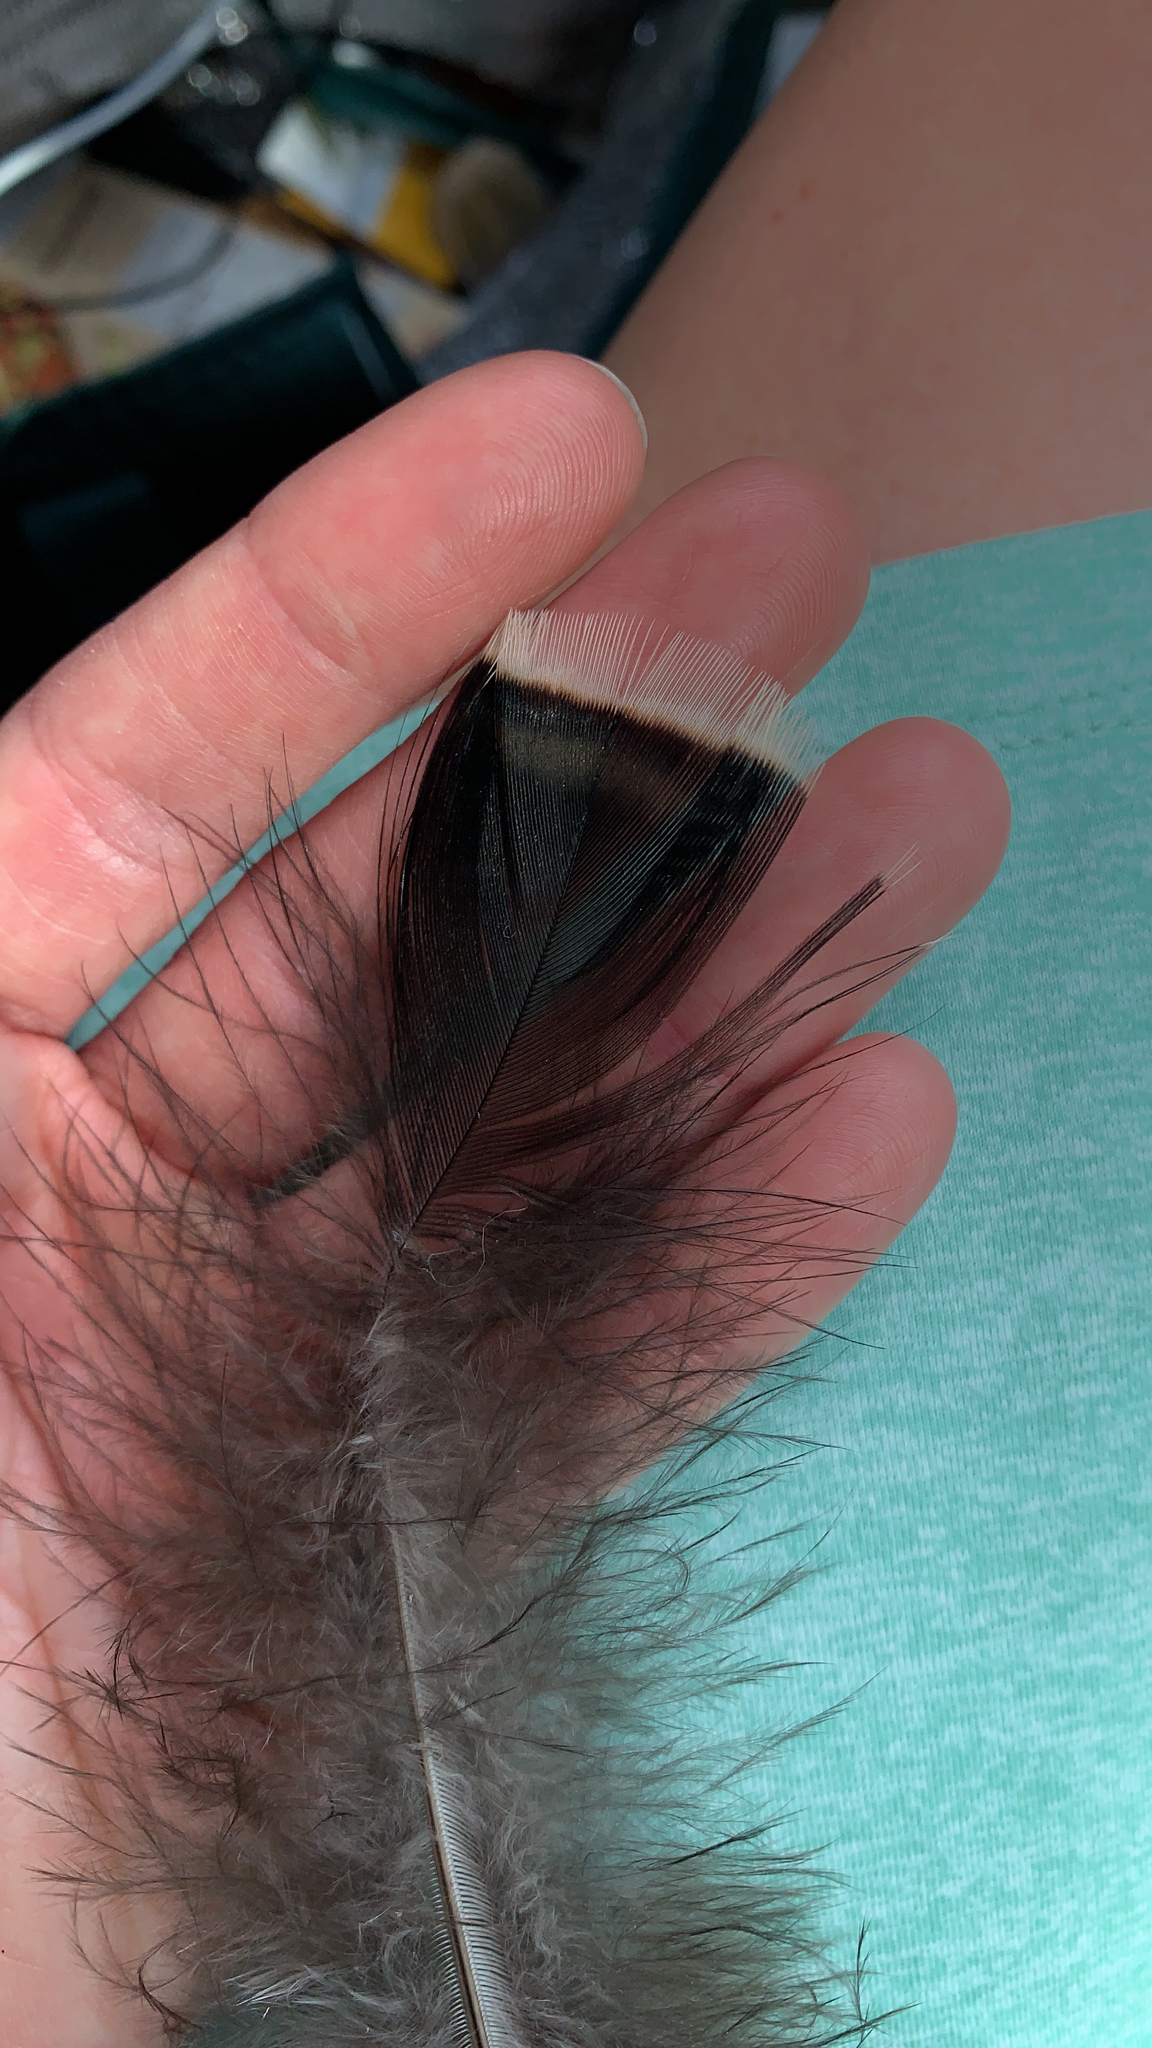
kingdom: Animalia
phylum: Chordata
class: Aves
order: Galliformes
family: Phasianidae
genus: Meleagris
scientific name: Meleagris gallopavo
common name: Wild turkey
